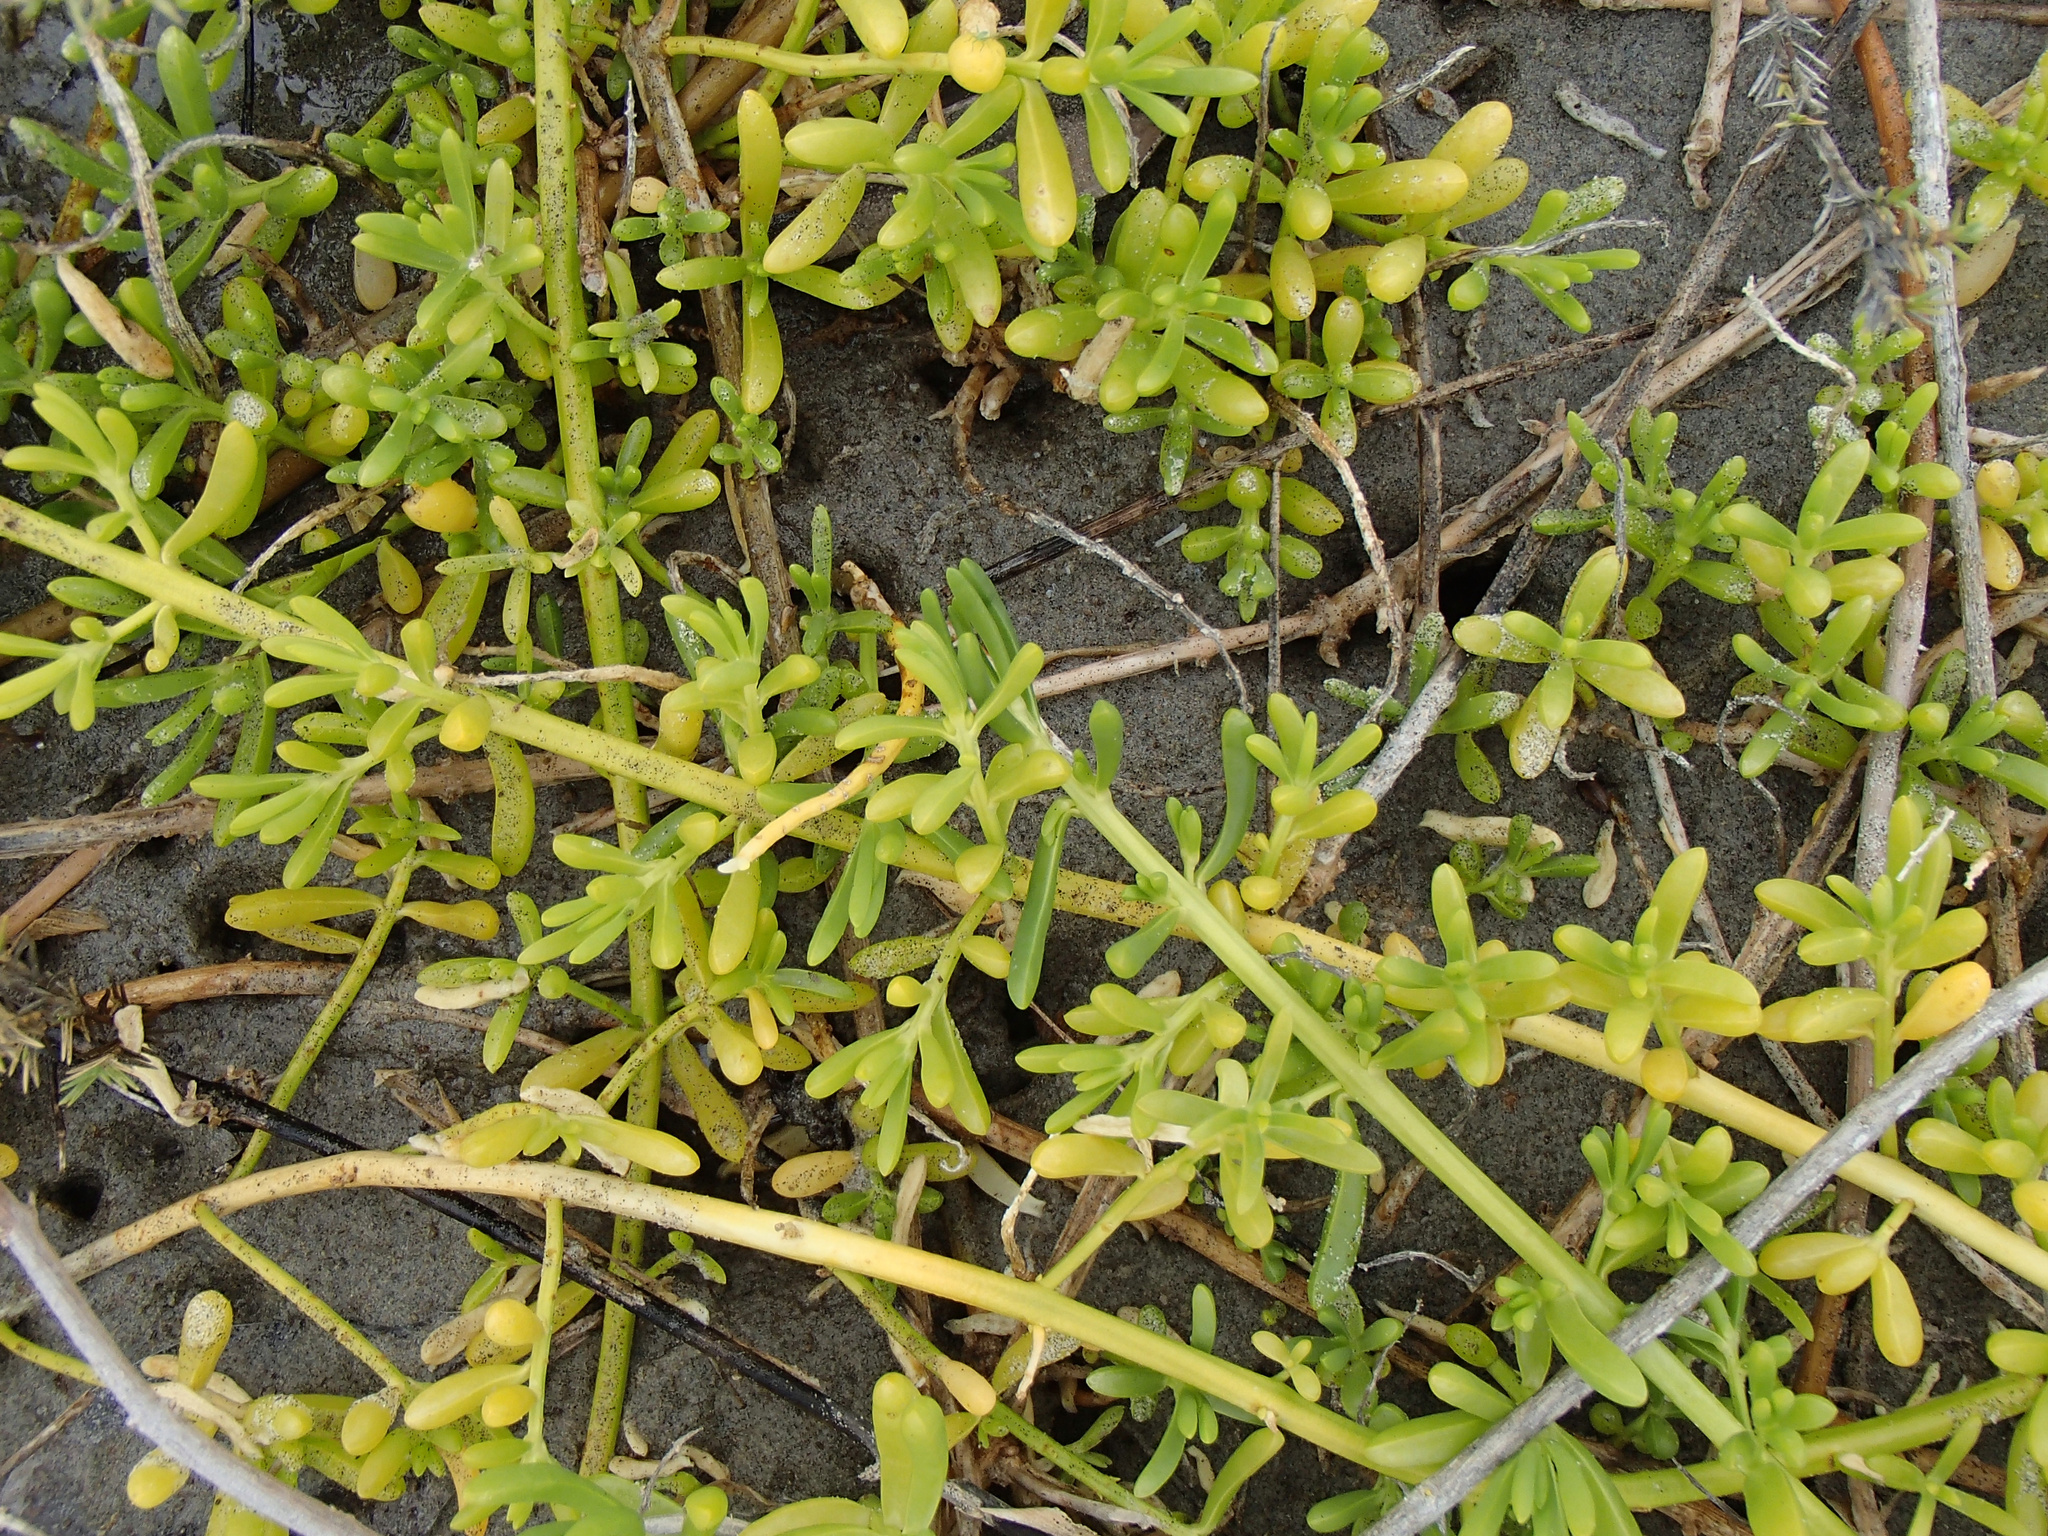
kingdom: Plantae
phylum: Tracheophyta
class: Magnoliopsida
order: Brassicales
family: Bataceae
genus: Batis
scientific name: Batis maritima
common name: Turtleweed
